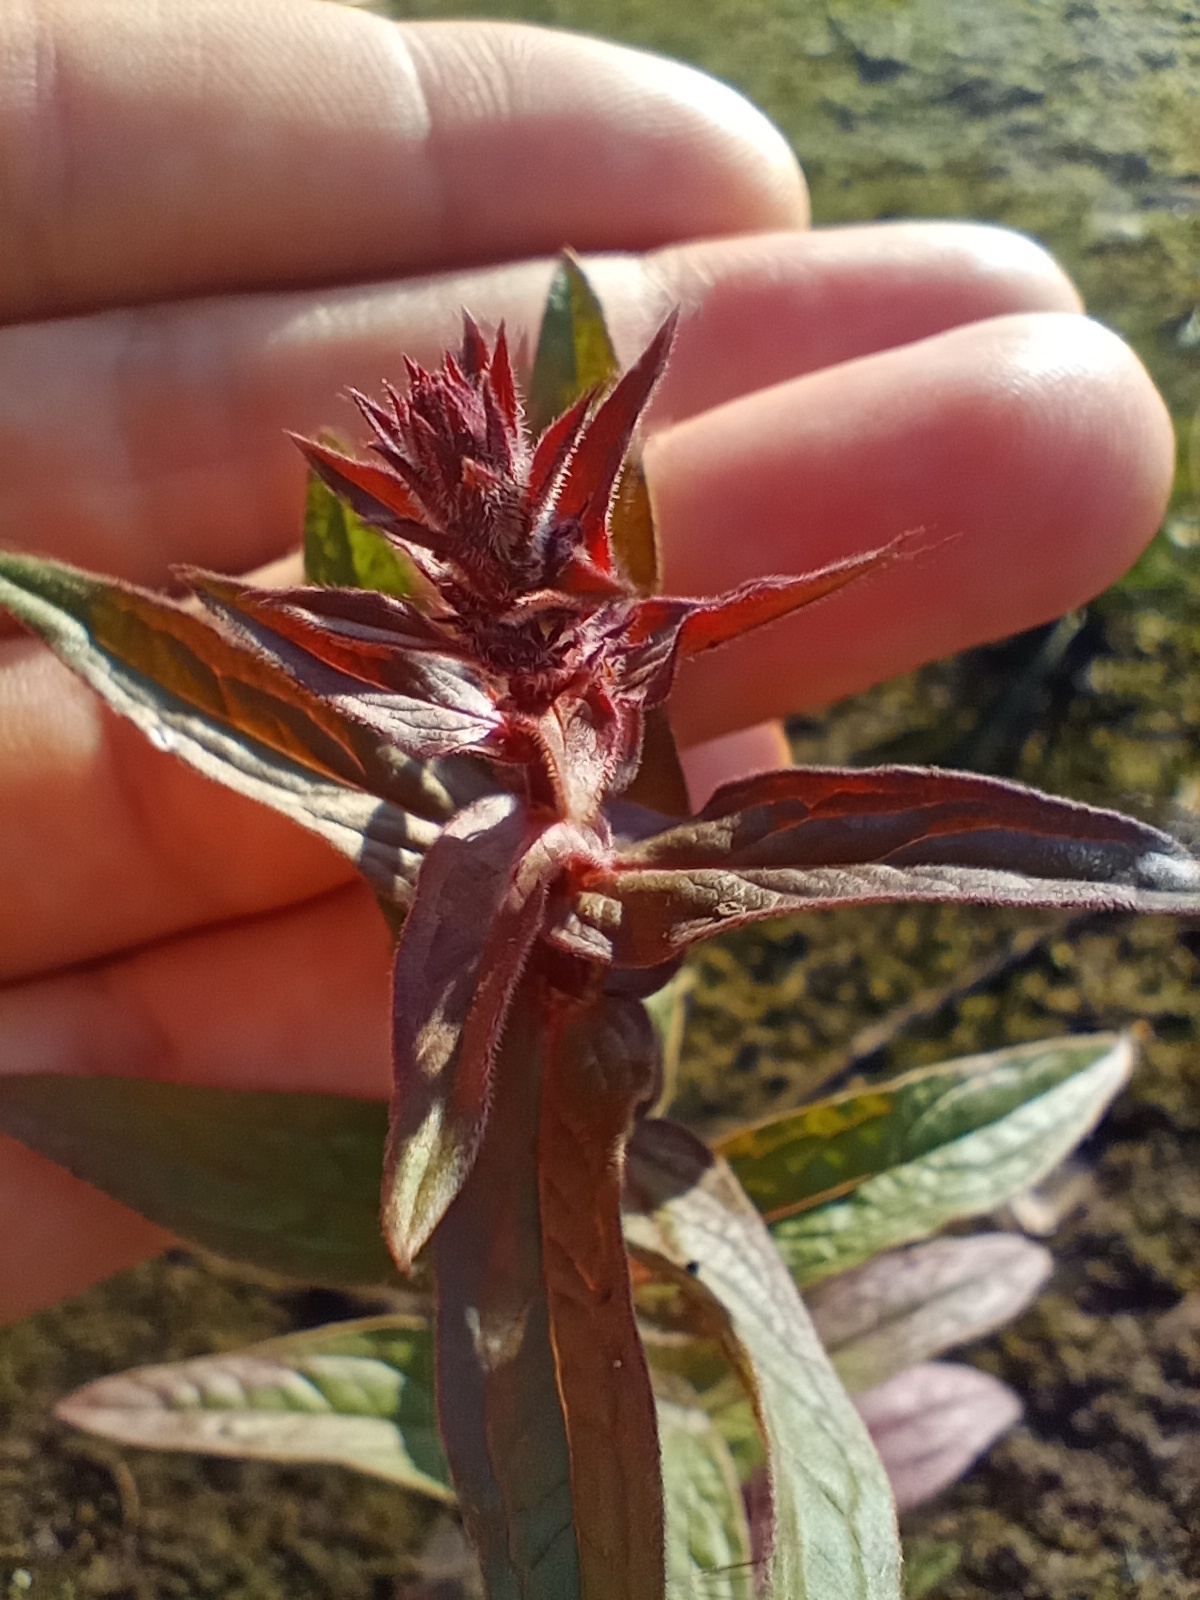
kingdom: Plantae
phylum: Tracheophyta
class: Magnoliopsida
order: Myrtales
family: Lythraceae
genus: Lythrum
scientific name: Lythrum salicaria
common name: Purple loosestrife
